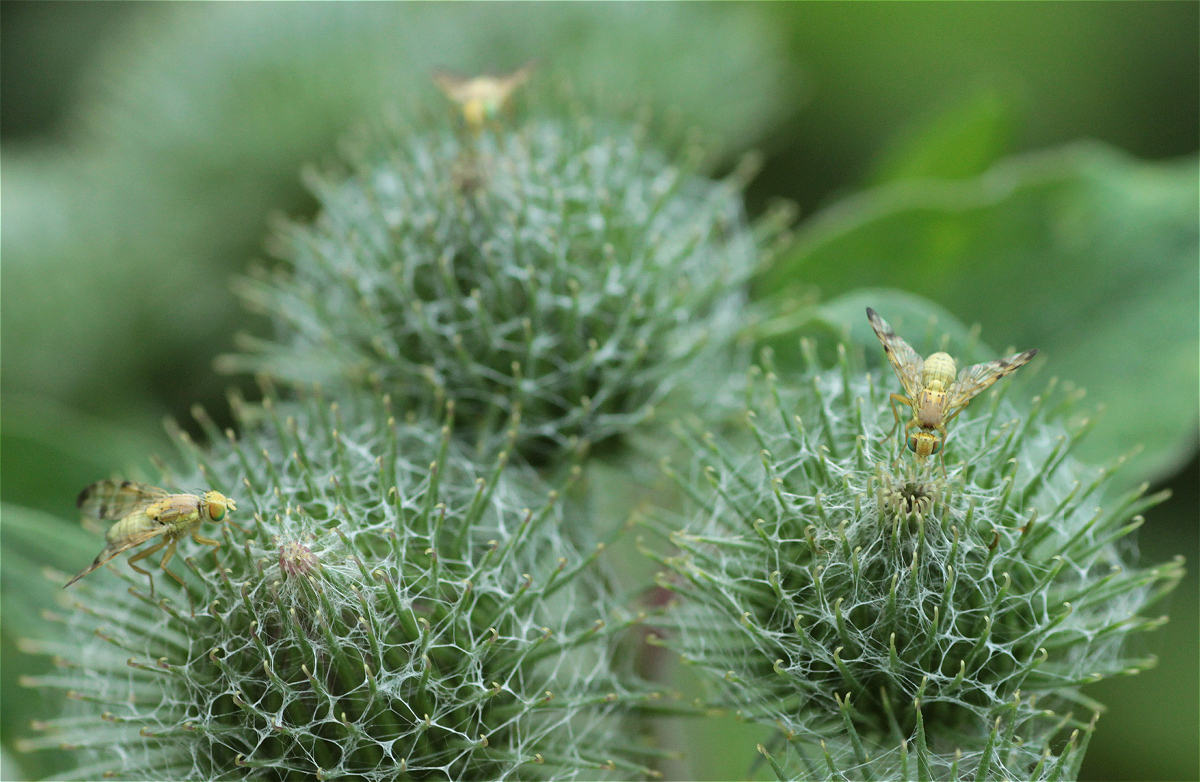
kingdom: Animalia
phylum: Arthropoda
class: Insecta
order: Diptera
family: Tephritidae
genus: Terellia
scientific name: Terellia tussilaginis
